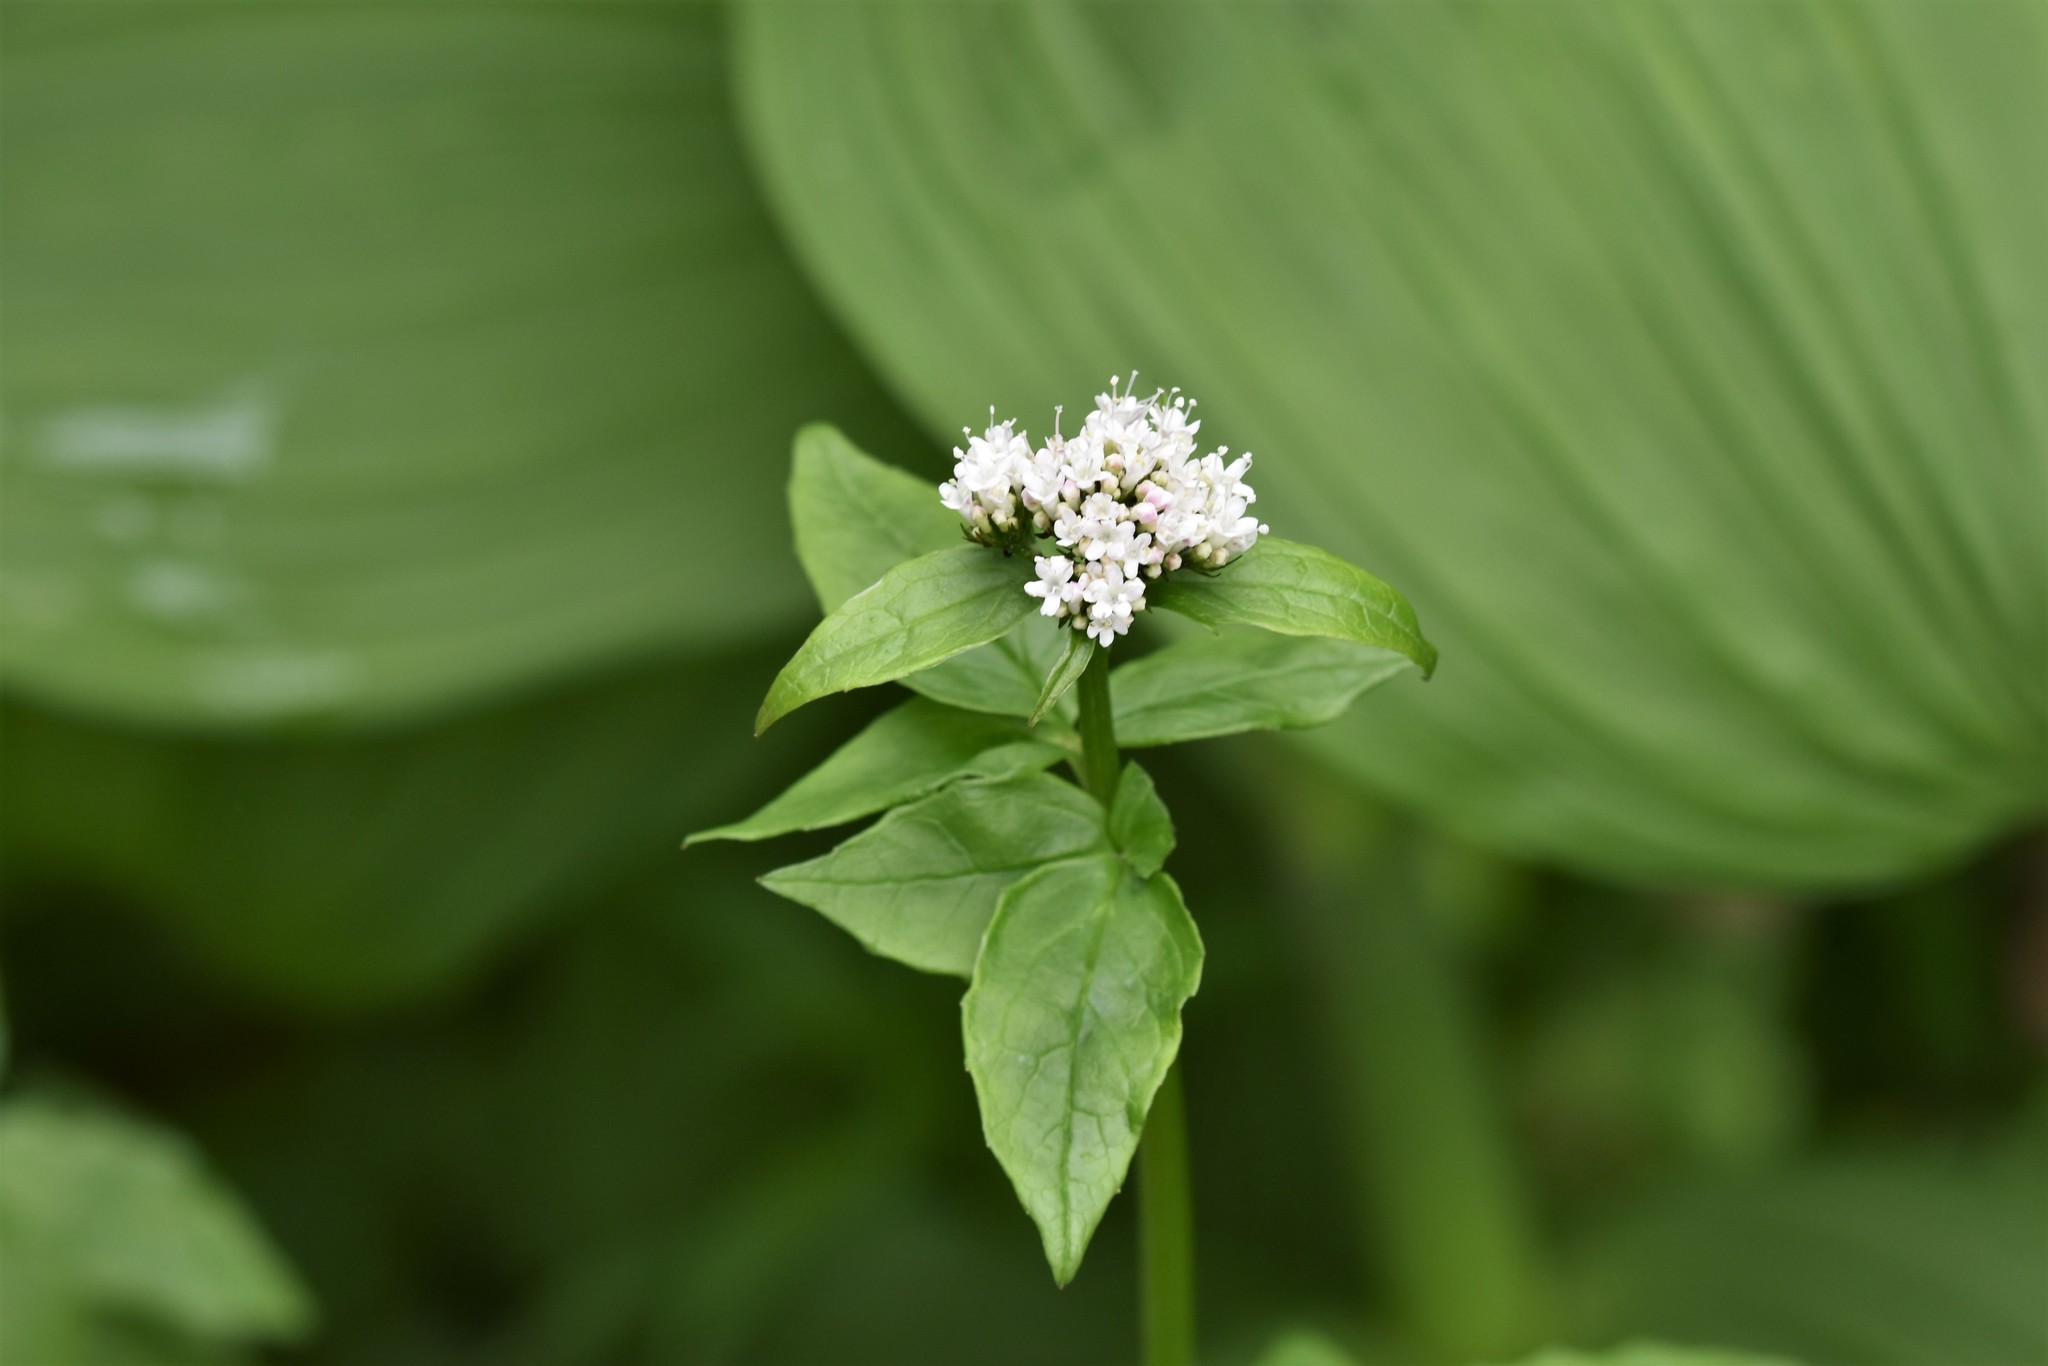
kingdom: Plantae
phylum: Tracheophyta
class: Magnoliopsida
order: Dipsacales
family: Caprifoliaceae
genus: Valeriana
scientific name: Valeriana sitchensis
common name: Pacific valerian
